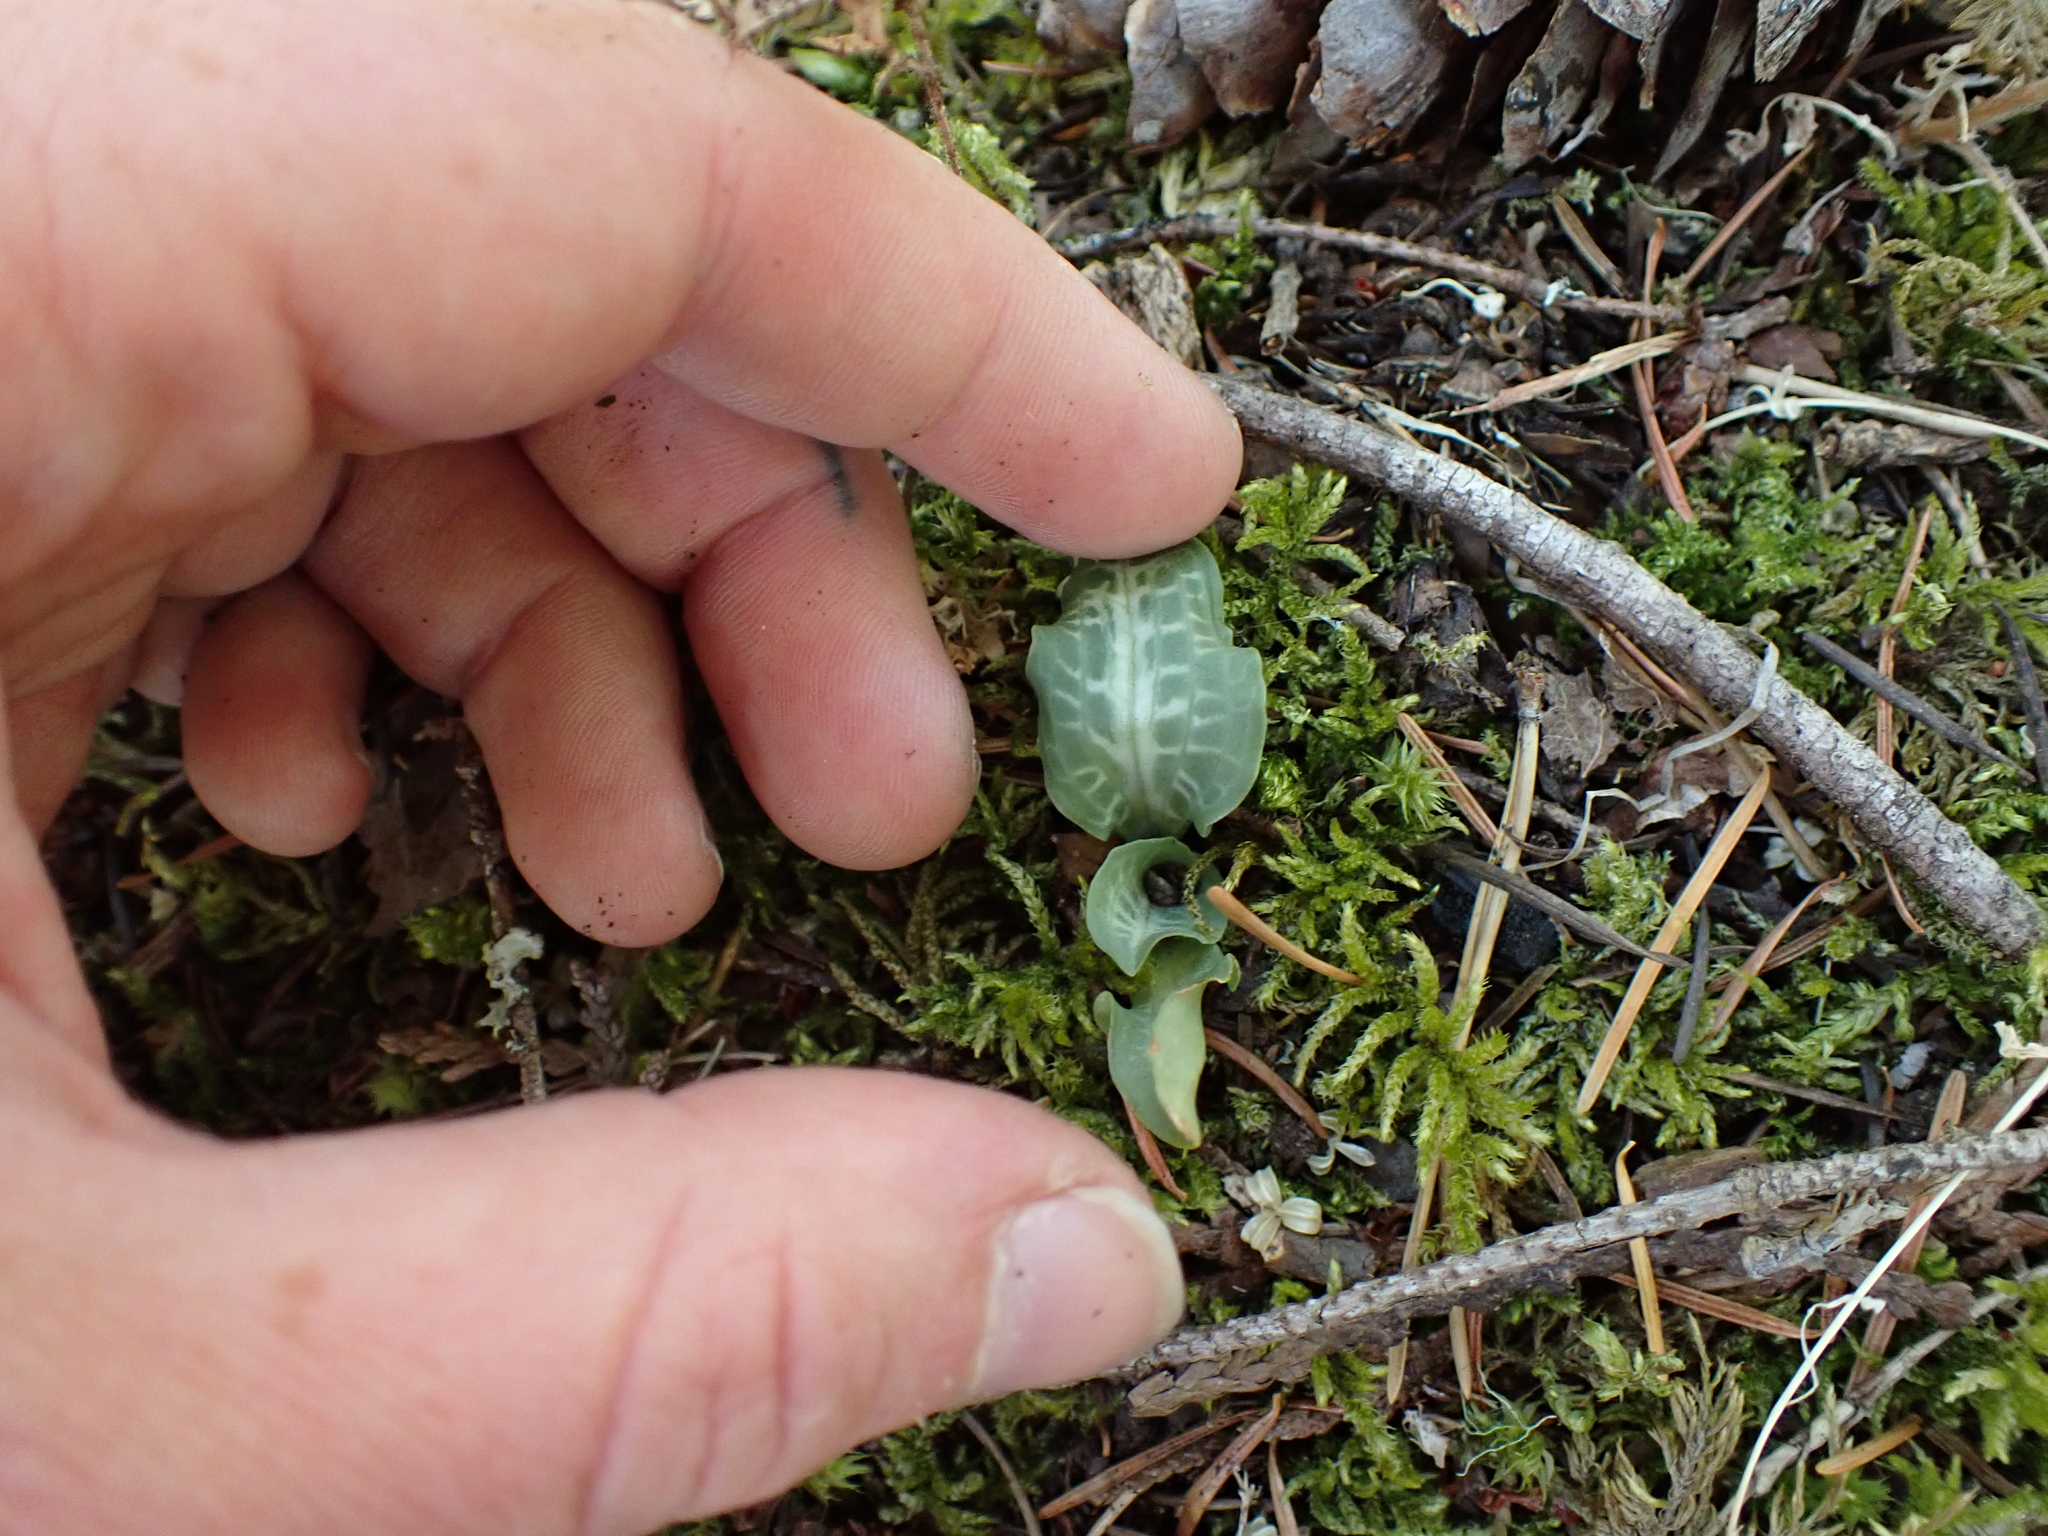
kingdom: Plantae
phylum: Tracheophyta
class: Liliopsida
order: Asparagales
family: Orchidaceae
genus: Goodyera
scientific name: Goodyera oblongifolia
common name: Giant rattlesnake-plantain
